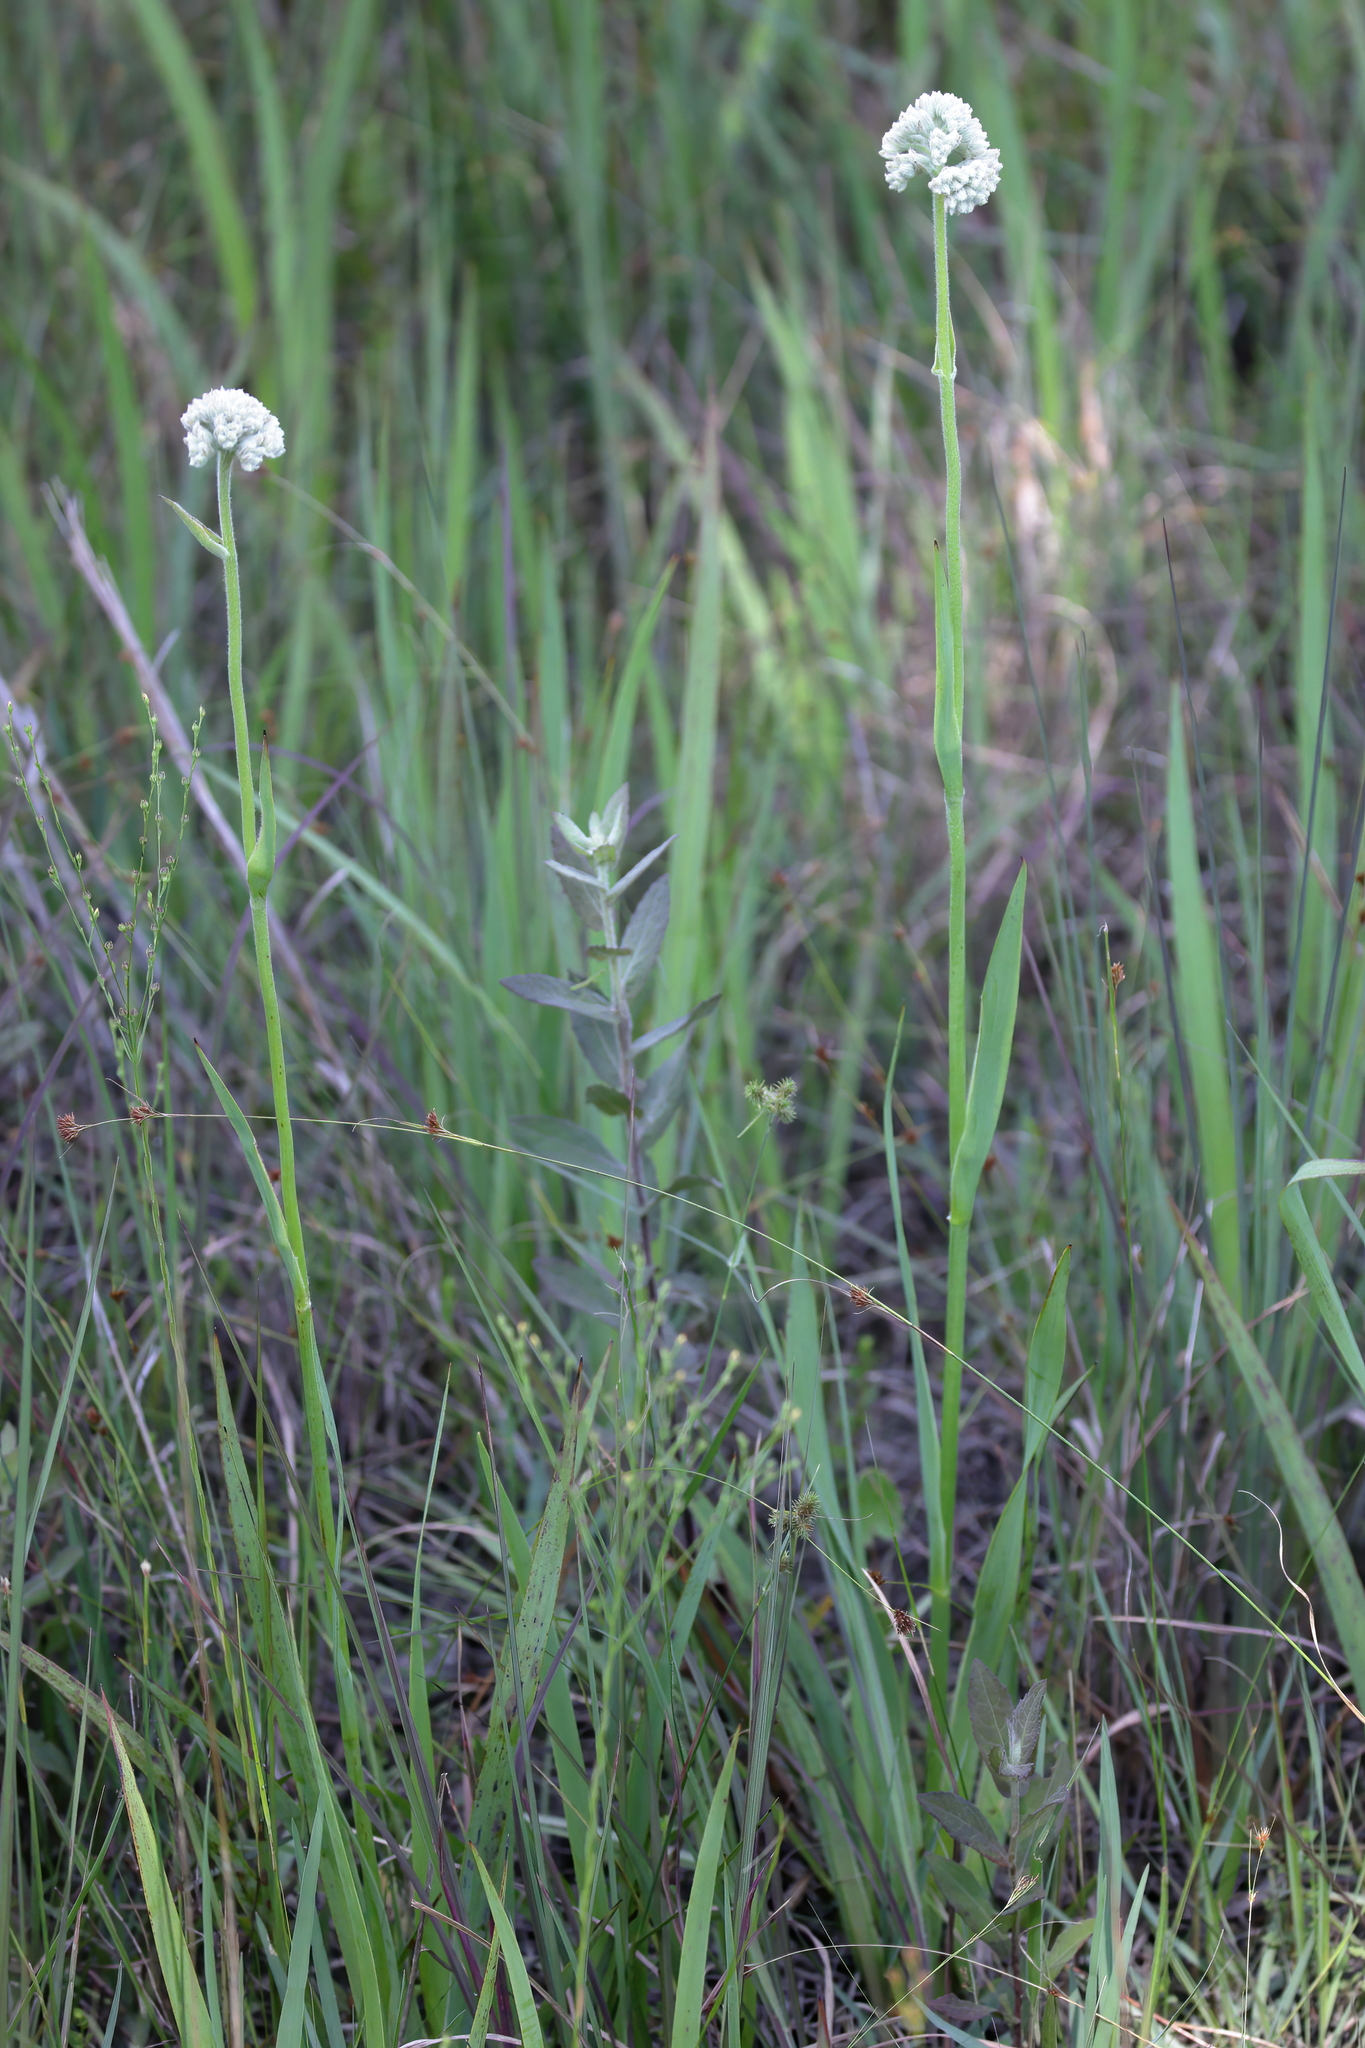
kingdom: Plantae
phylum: Tracheophyta
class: Liliopsida
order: Commelinales
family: Haemodoraceae
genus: Lachnanthes
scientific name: Lachnanthes caroliana
